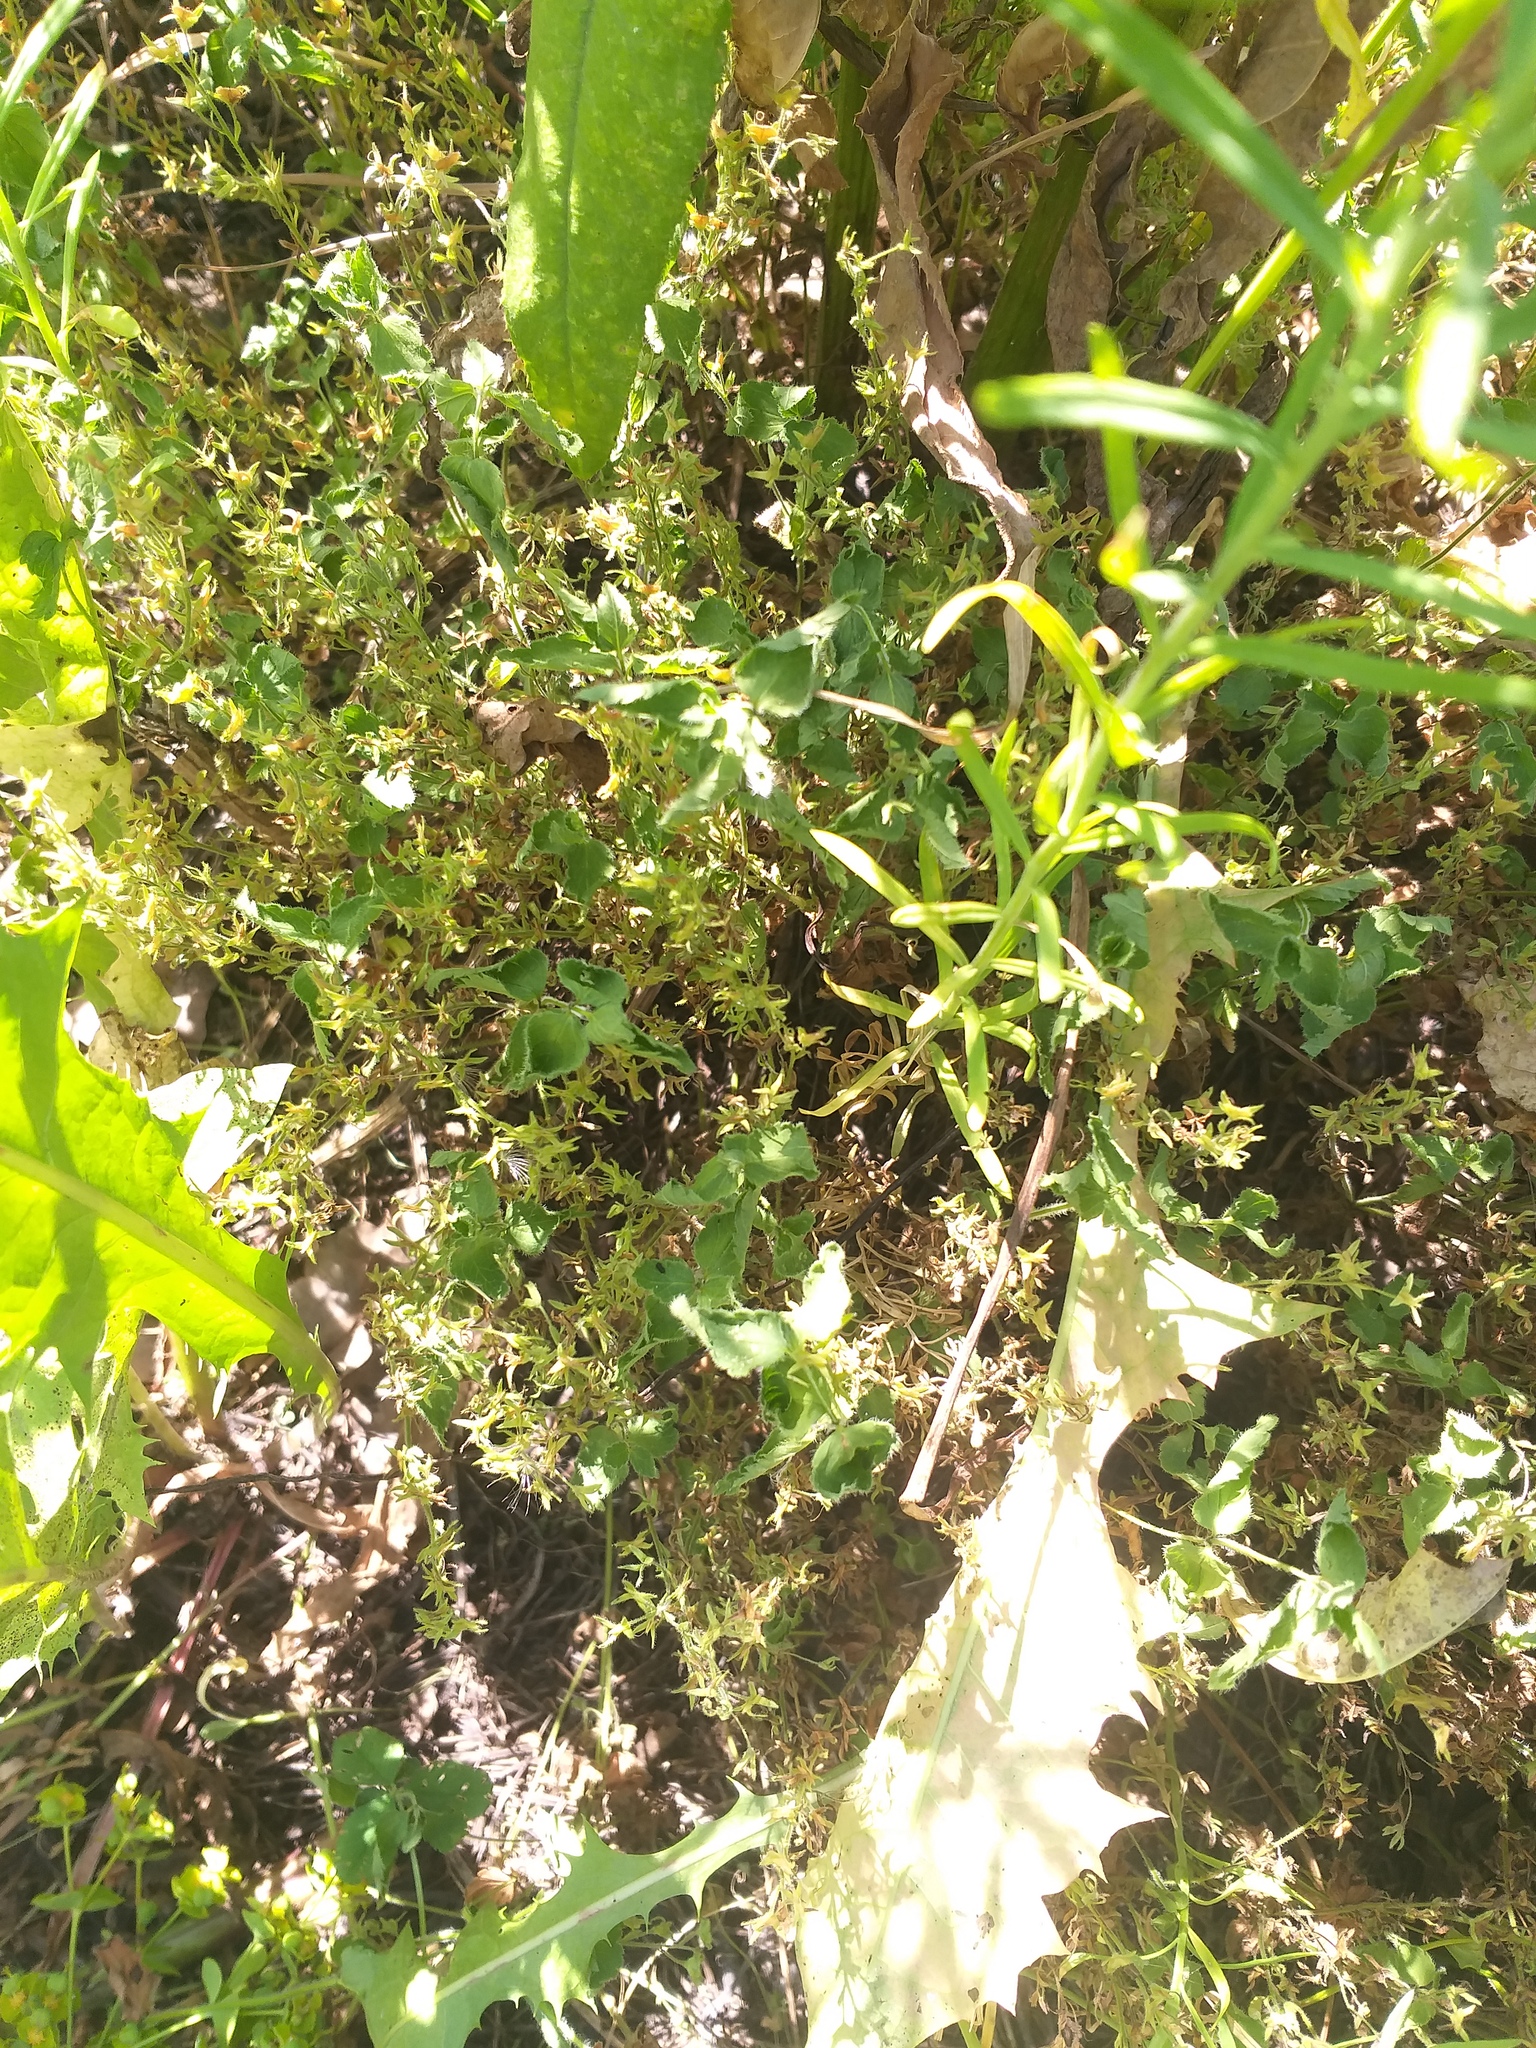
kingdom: Plantae
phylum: Tracheophyta
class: Magnoliopsida
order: Lamiales
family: Plantaginaceae
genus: Veronica
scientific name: Veronica chamaedrys
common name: Germander speedwell
